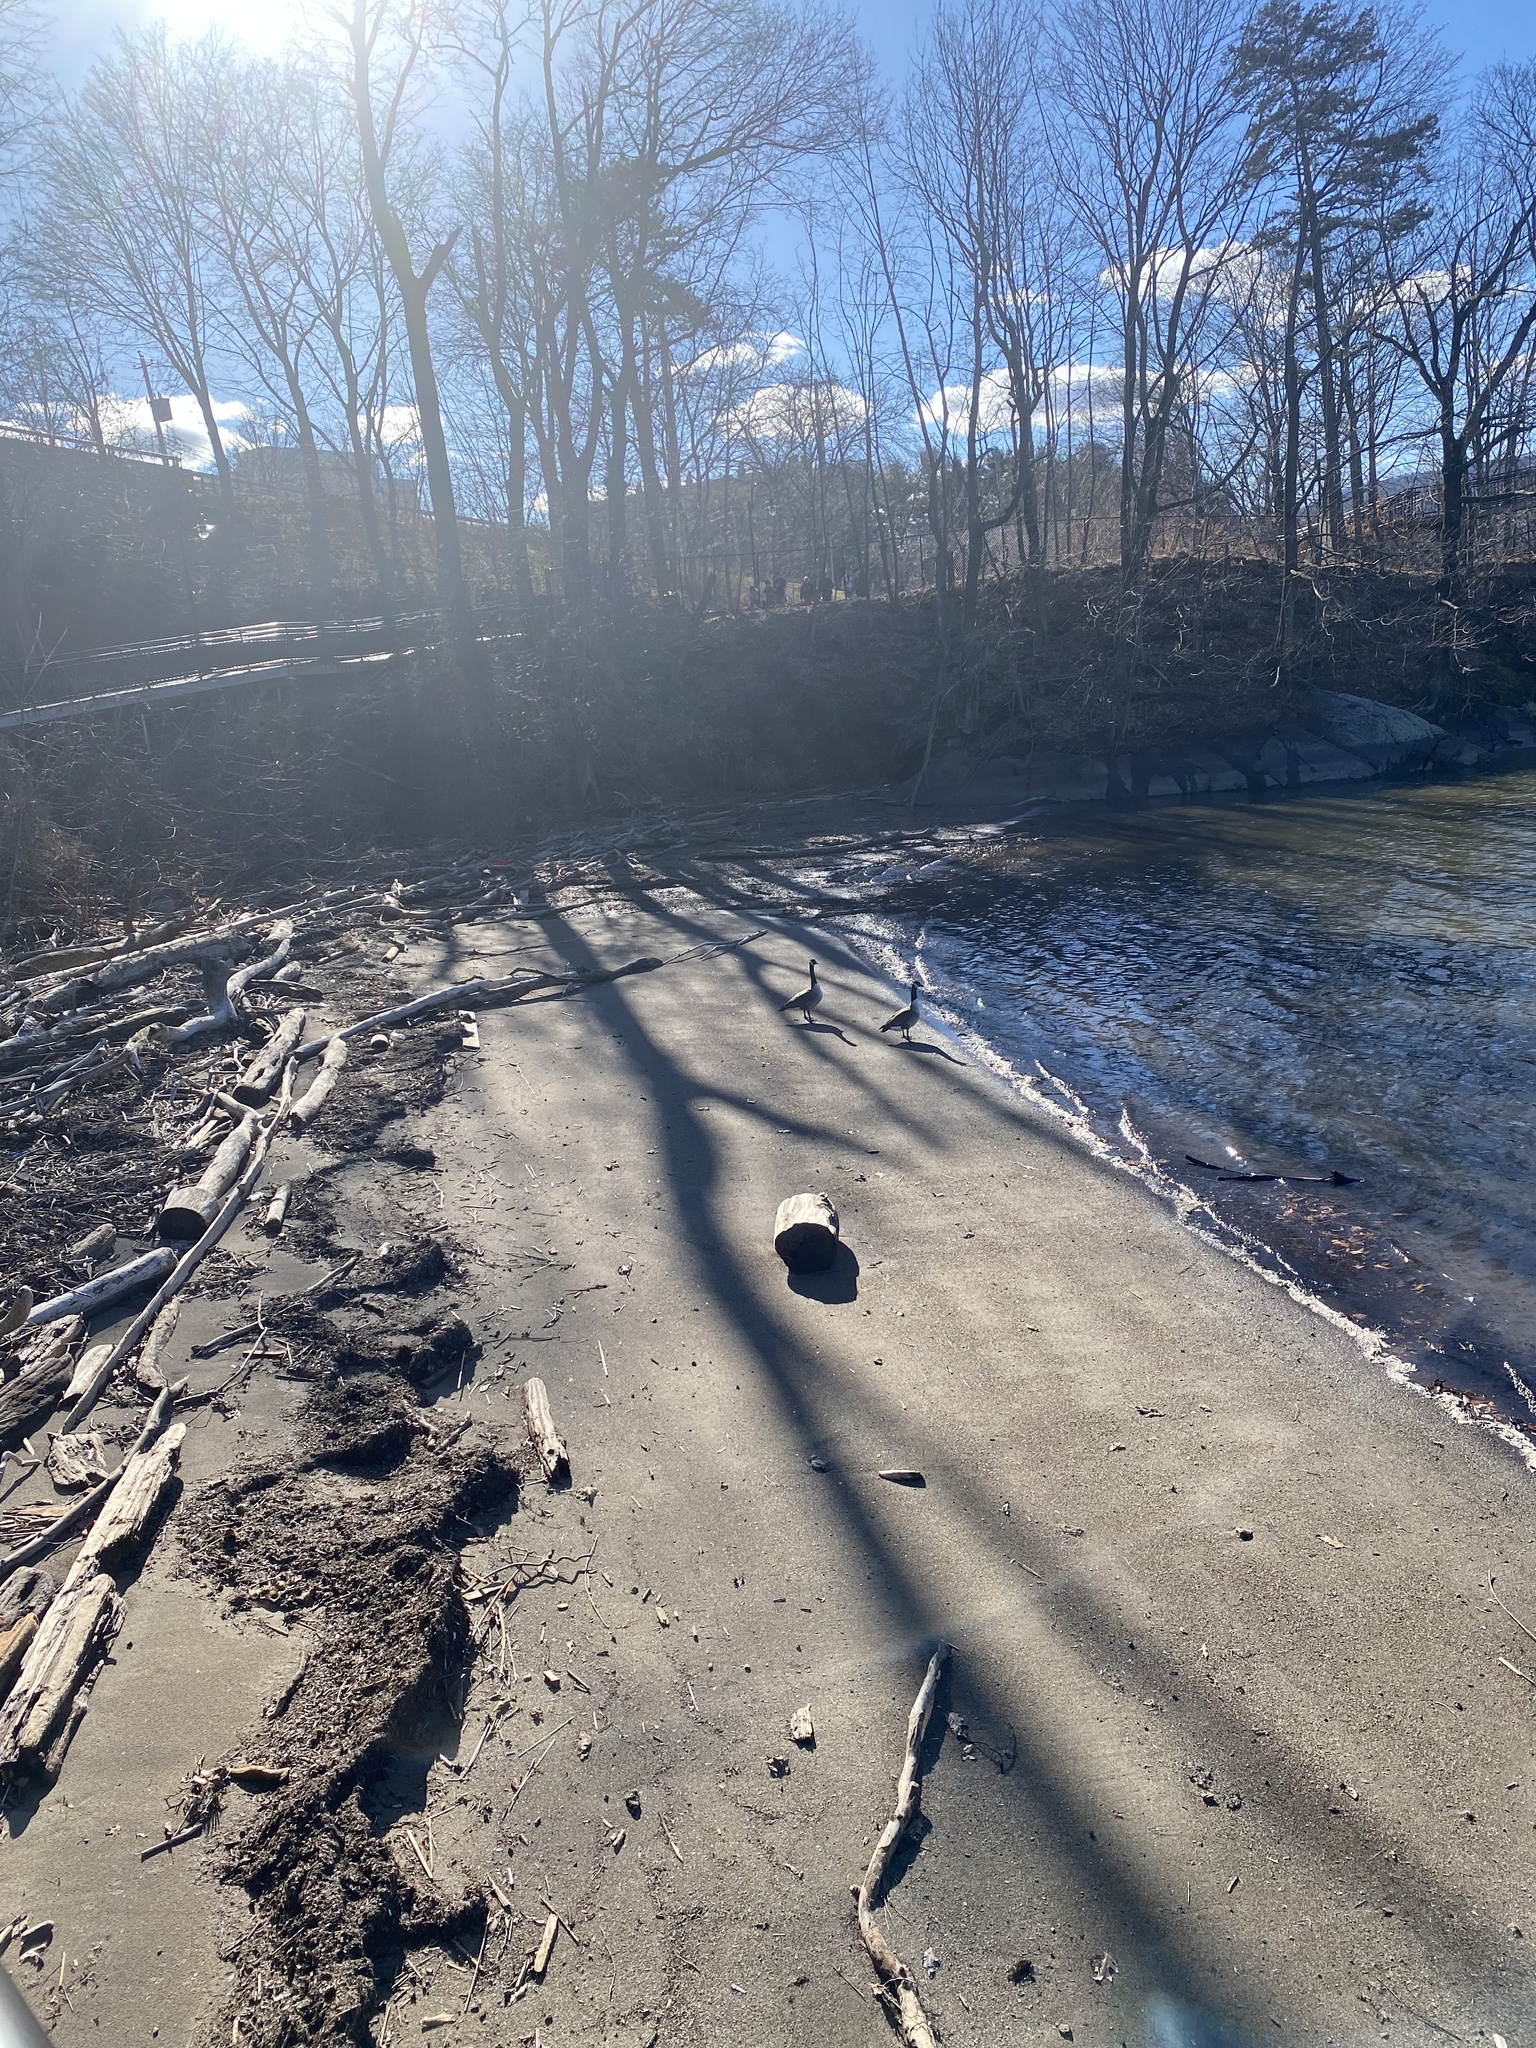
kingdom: Animalia
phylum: Chordata
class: Aves
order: Anseriformes
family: Anatidae
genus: Branta
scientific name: Branta canadensis
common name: Canada goose
